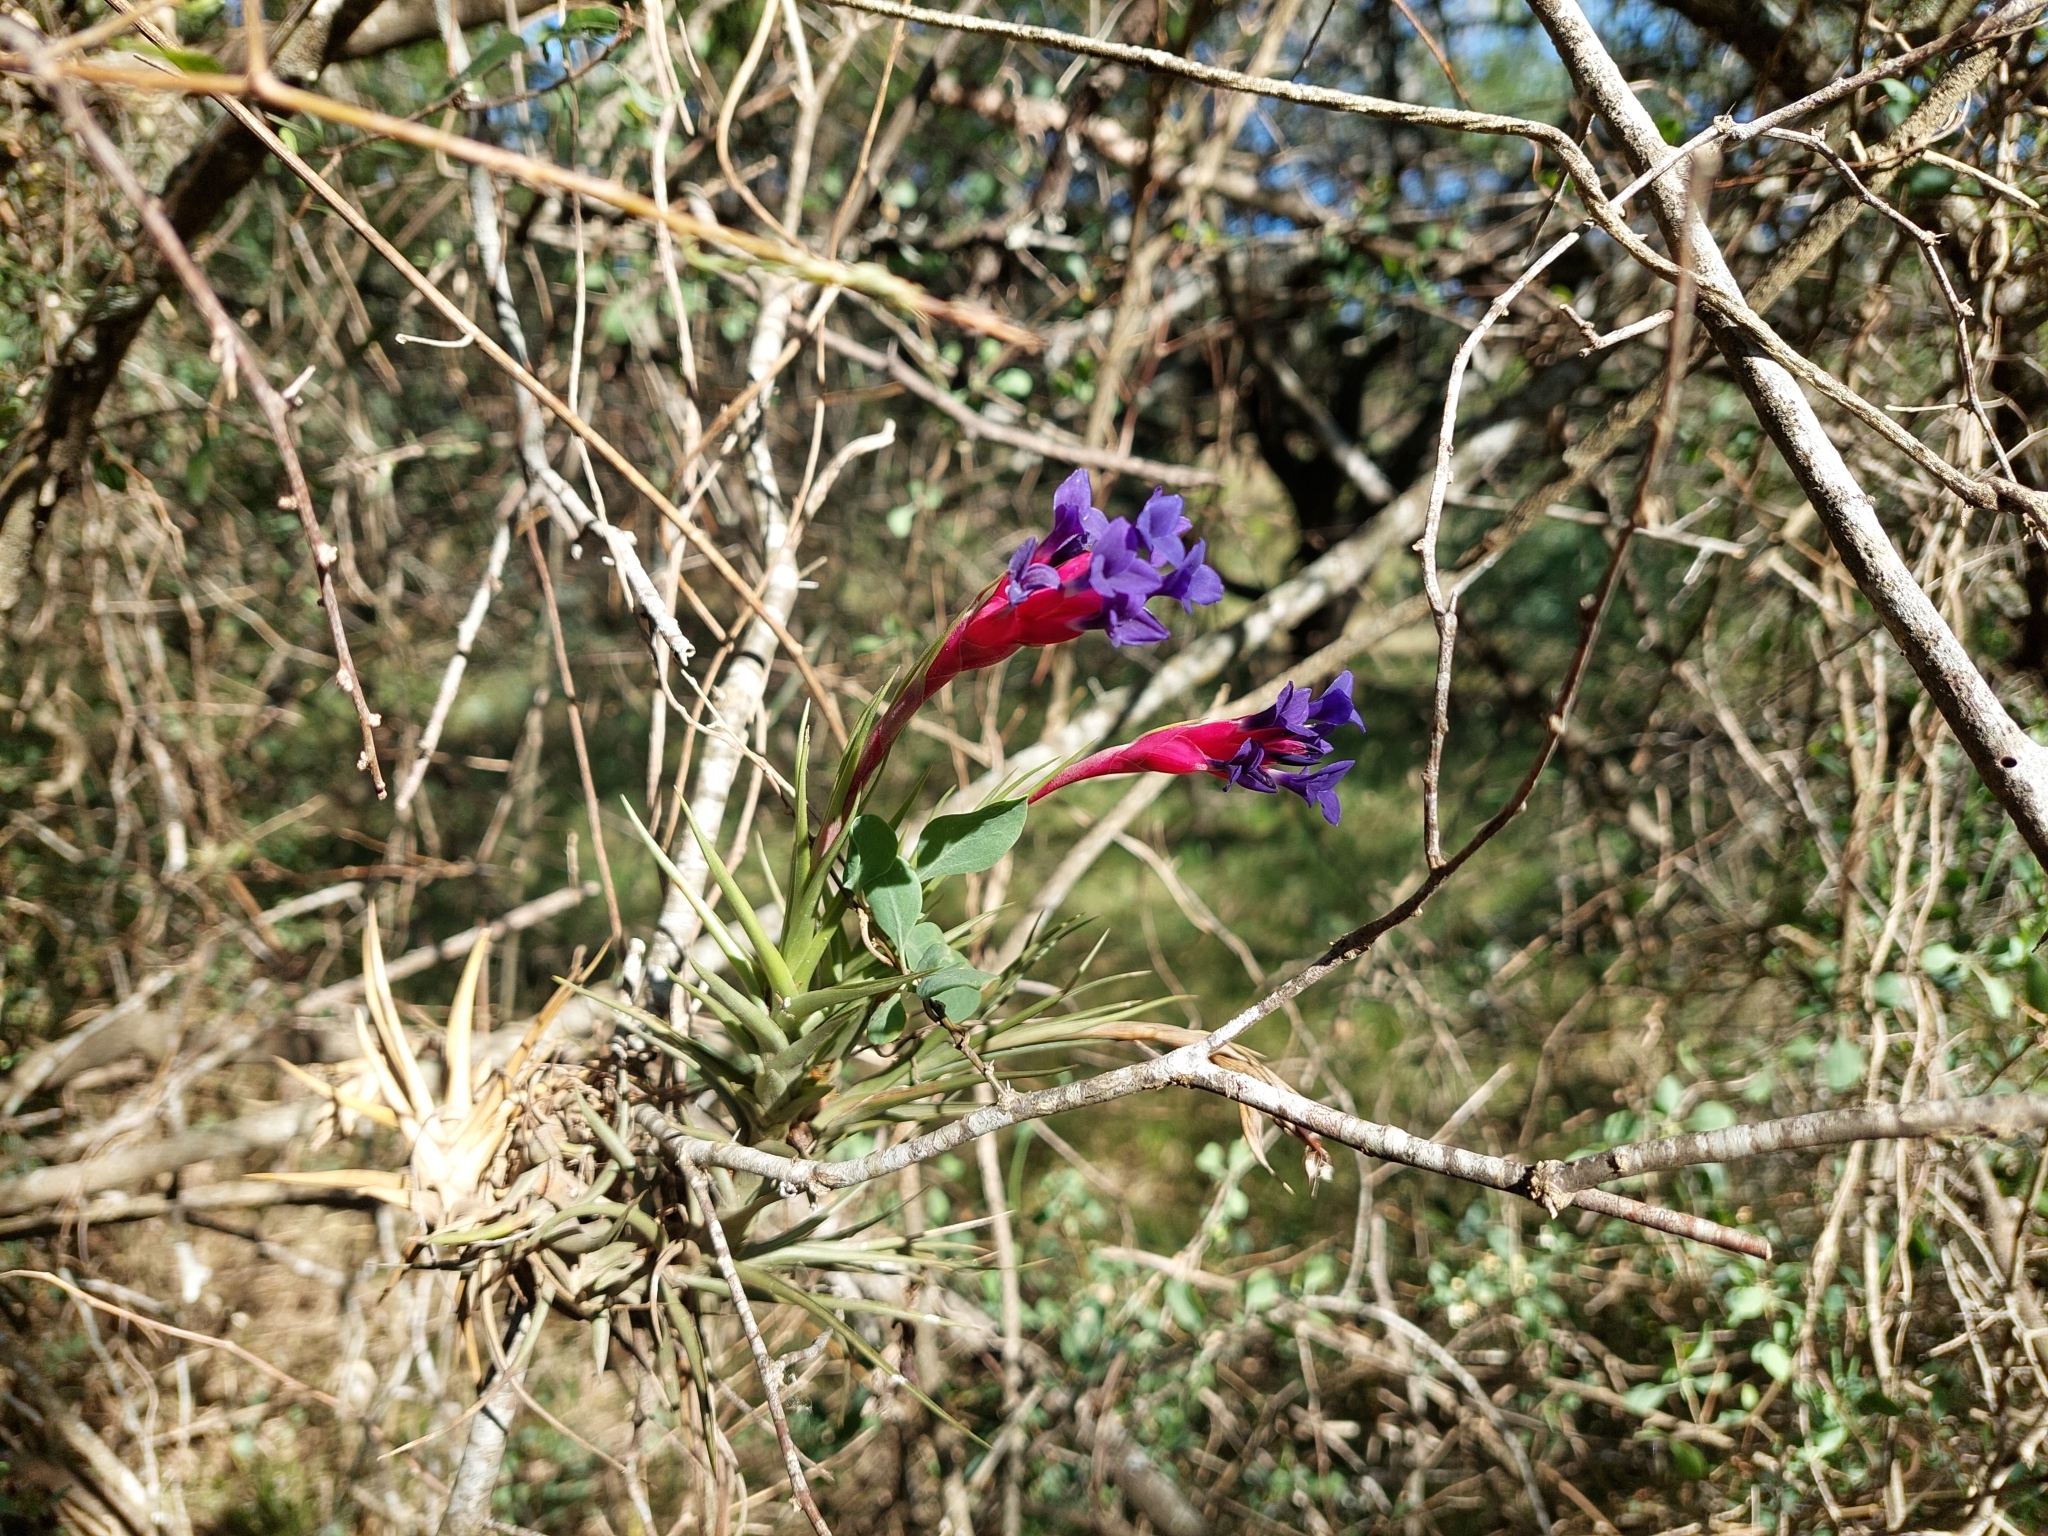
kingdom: Plantae
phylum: Tracheophyta
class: Liliopsida
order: Poales
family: Bromeliaceae
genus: Tillandsia
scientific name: Tillandsia aeranthos
